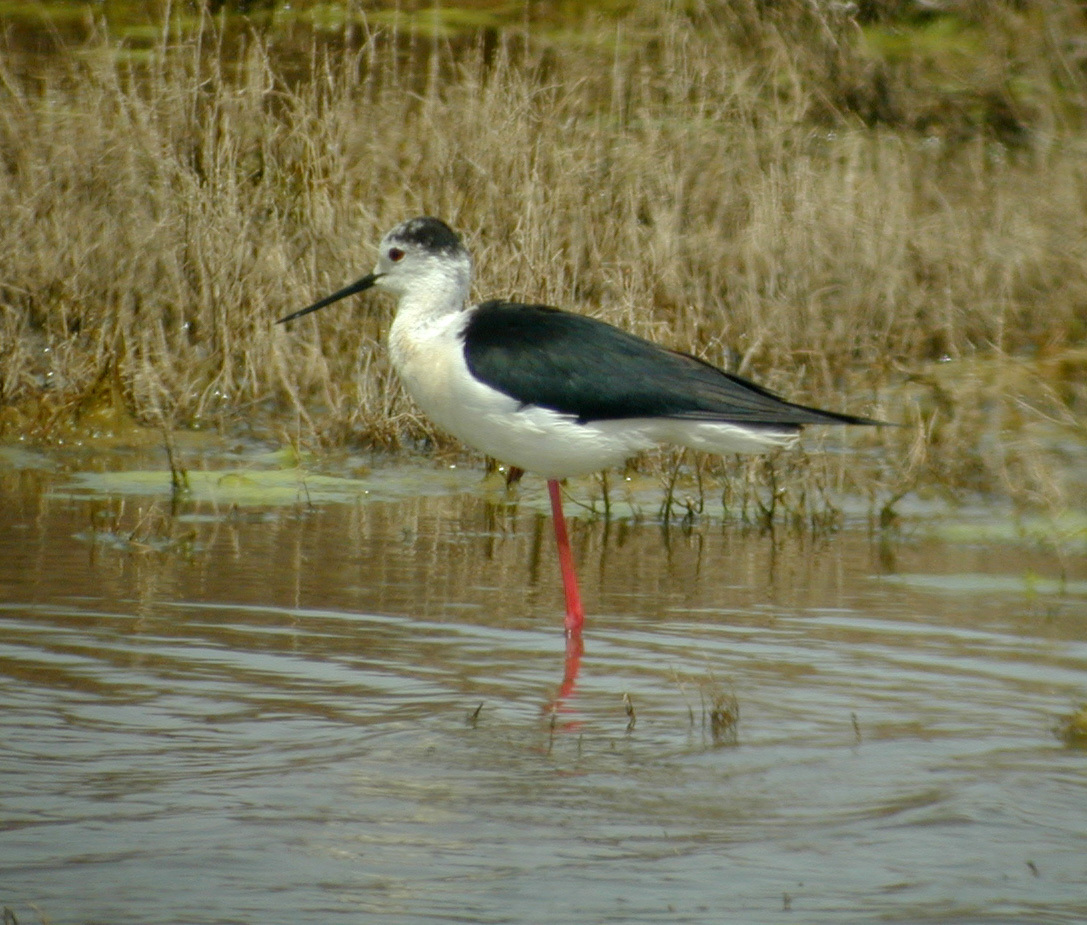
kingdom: Animalia
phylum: Chordata
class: Aves
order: Charadriiformes
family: Recurvirostridae
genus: Himantopus
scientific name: Himantopus himantopus
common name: Black-winged stilt
